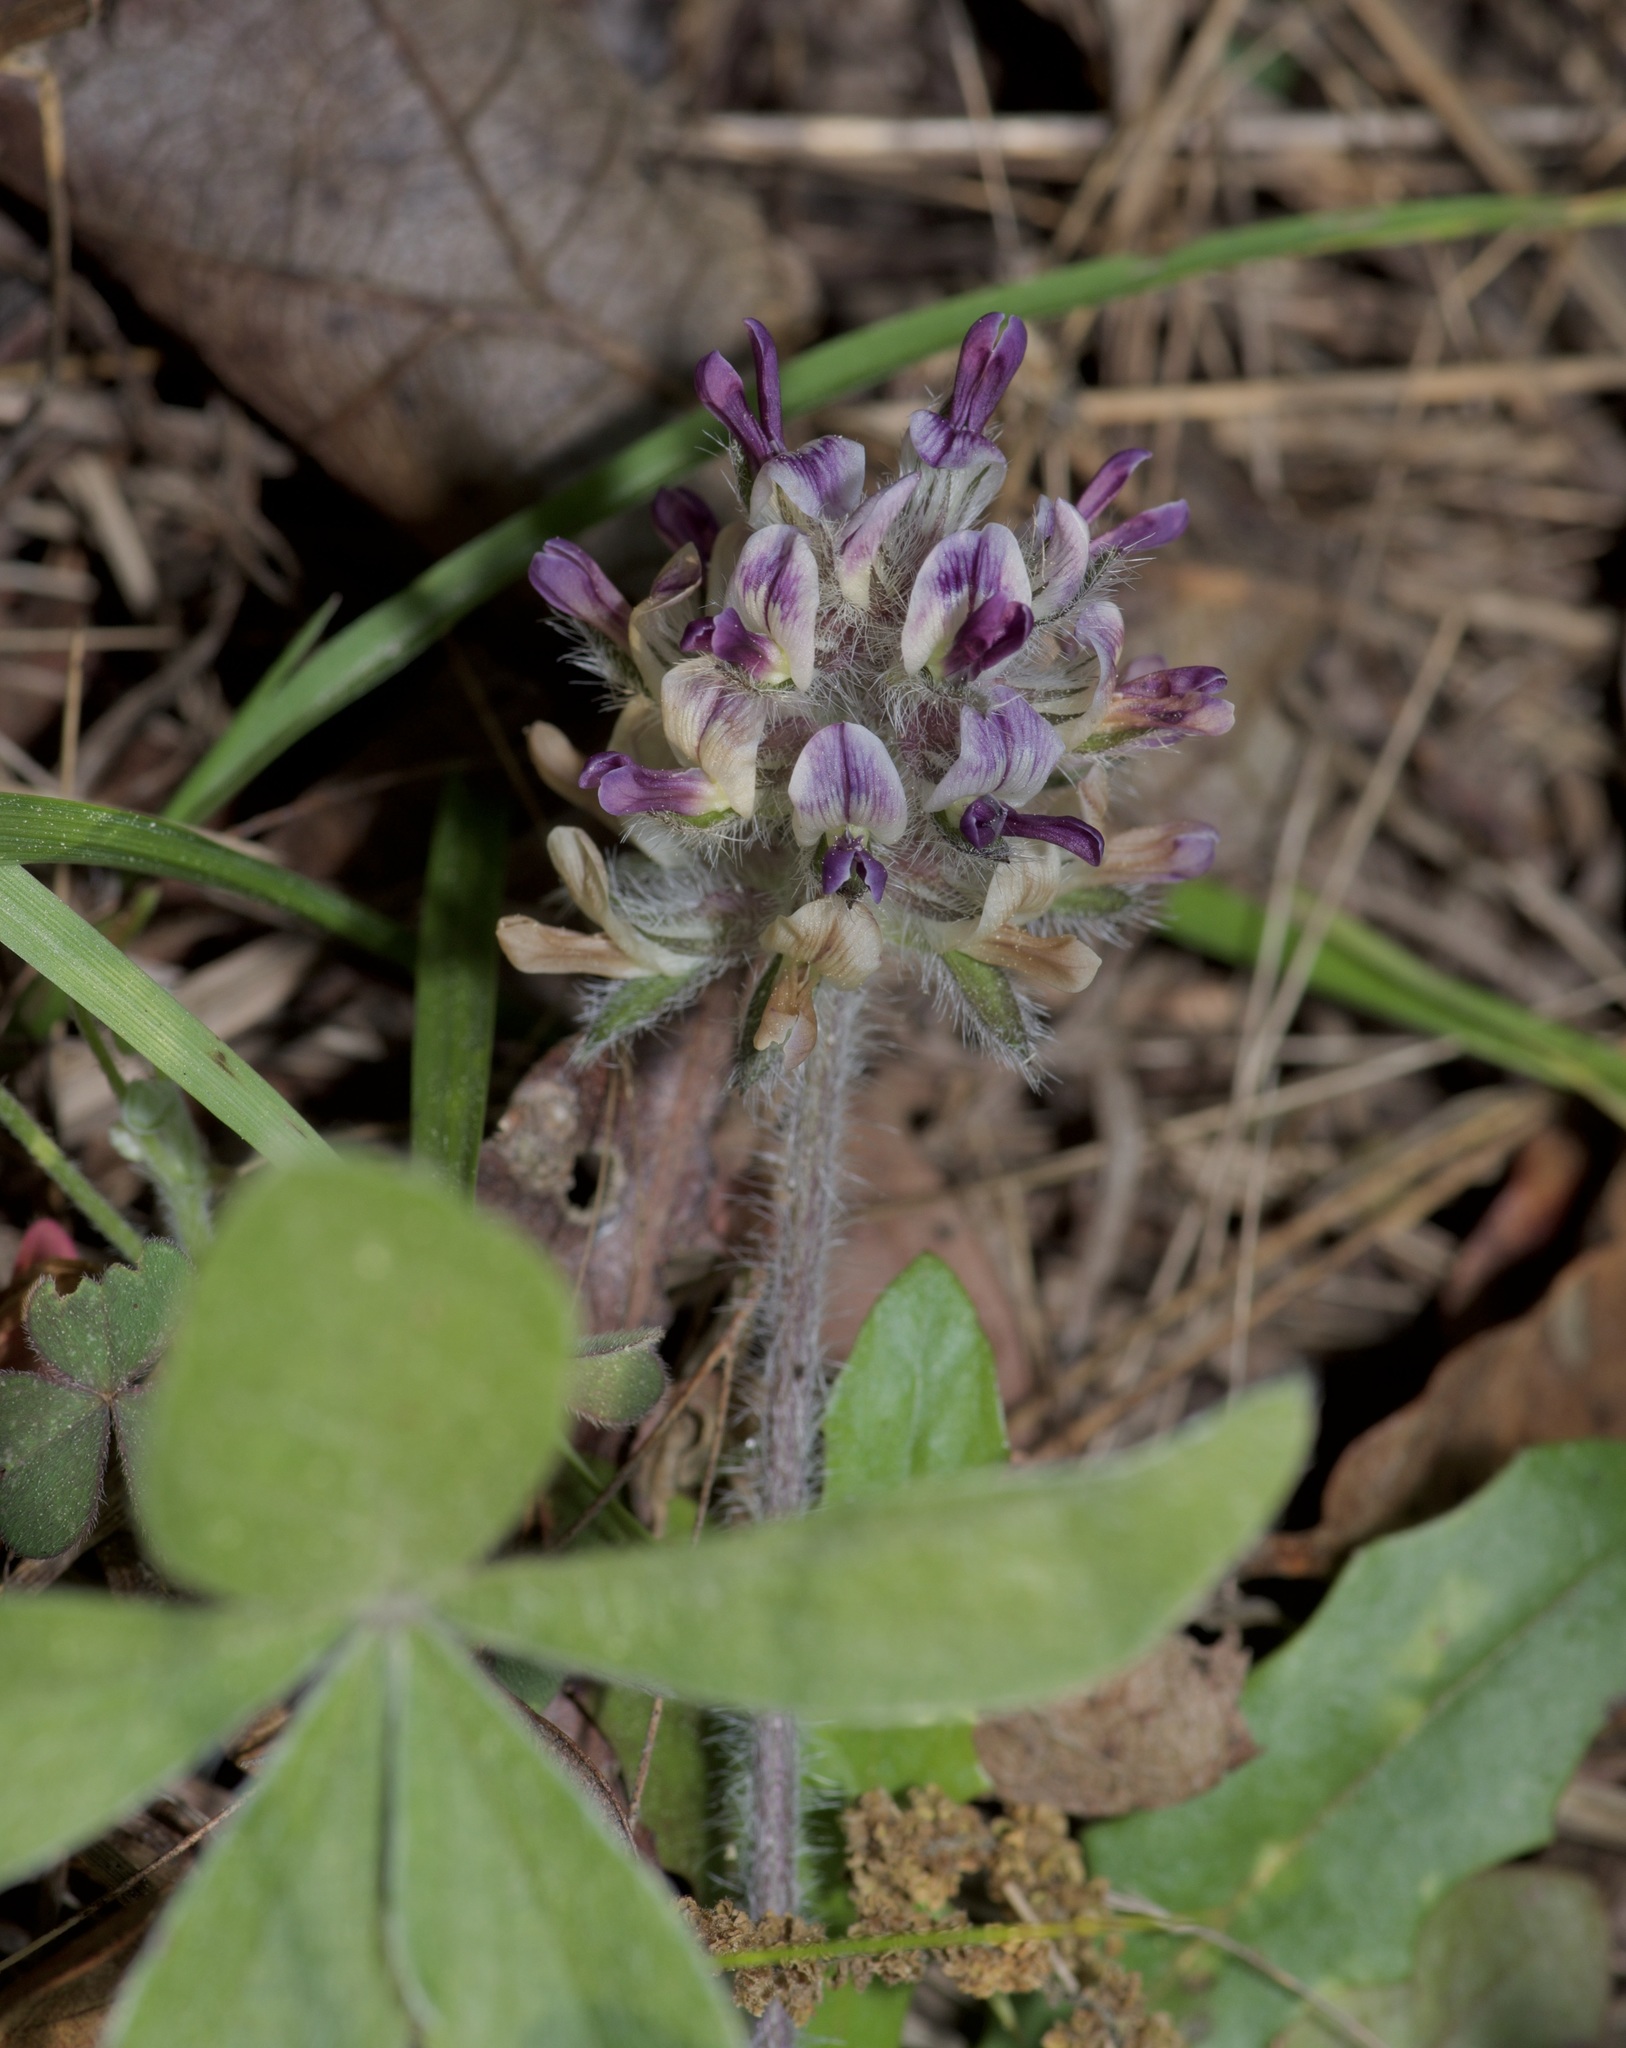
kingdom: Plantae
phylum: Tracheophyta
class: Magnoliopsida
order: Fabales
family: Fabaceae
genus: Pediomelum
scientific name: Pediomelum hypogaeum
